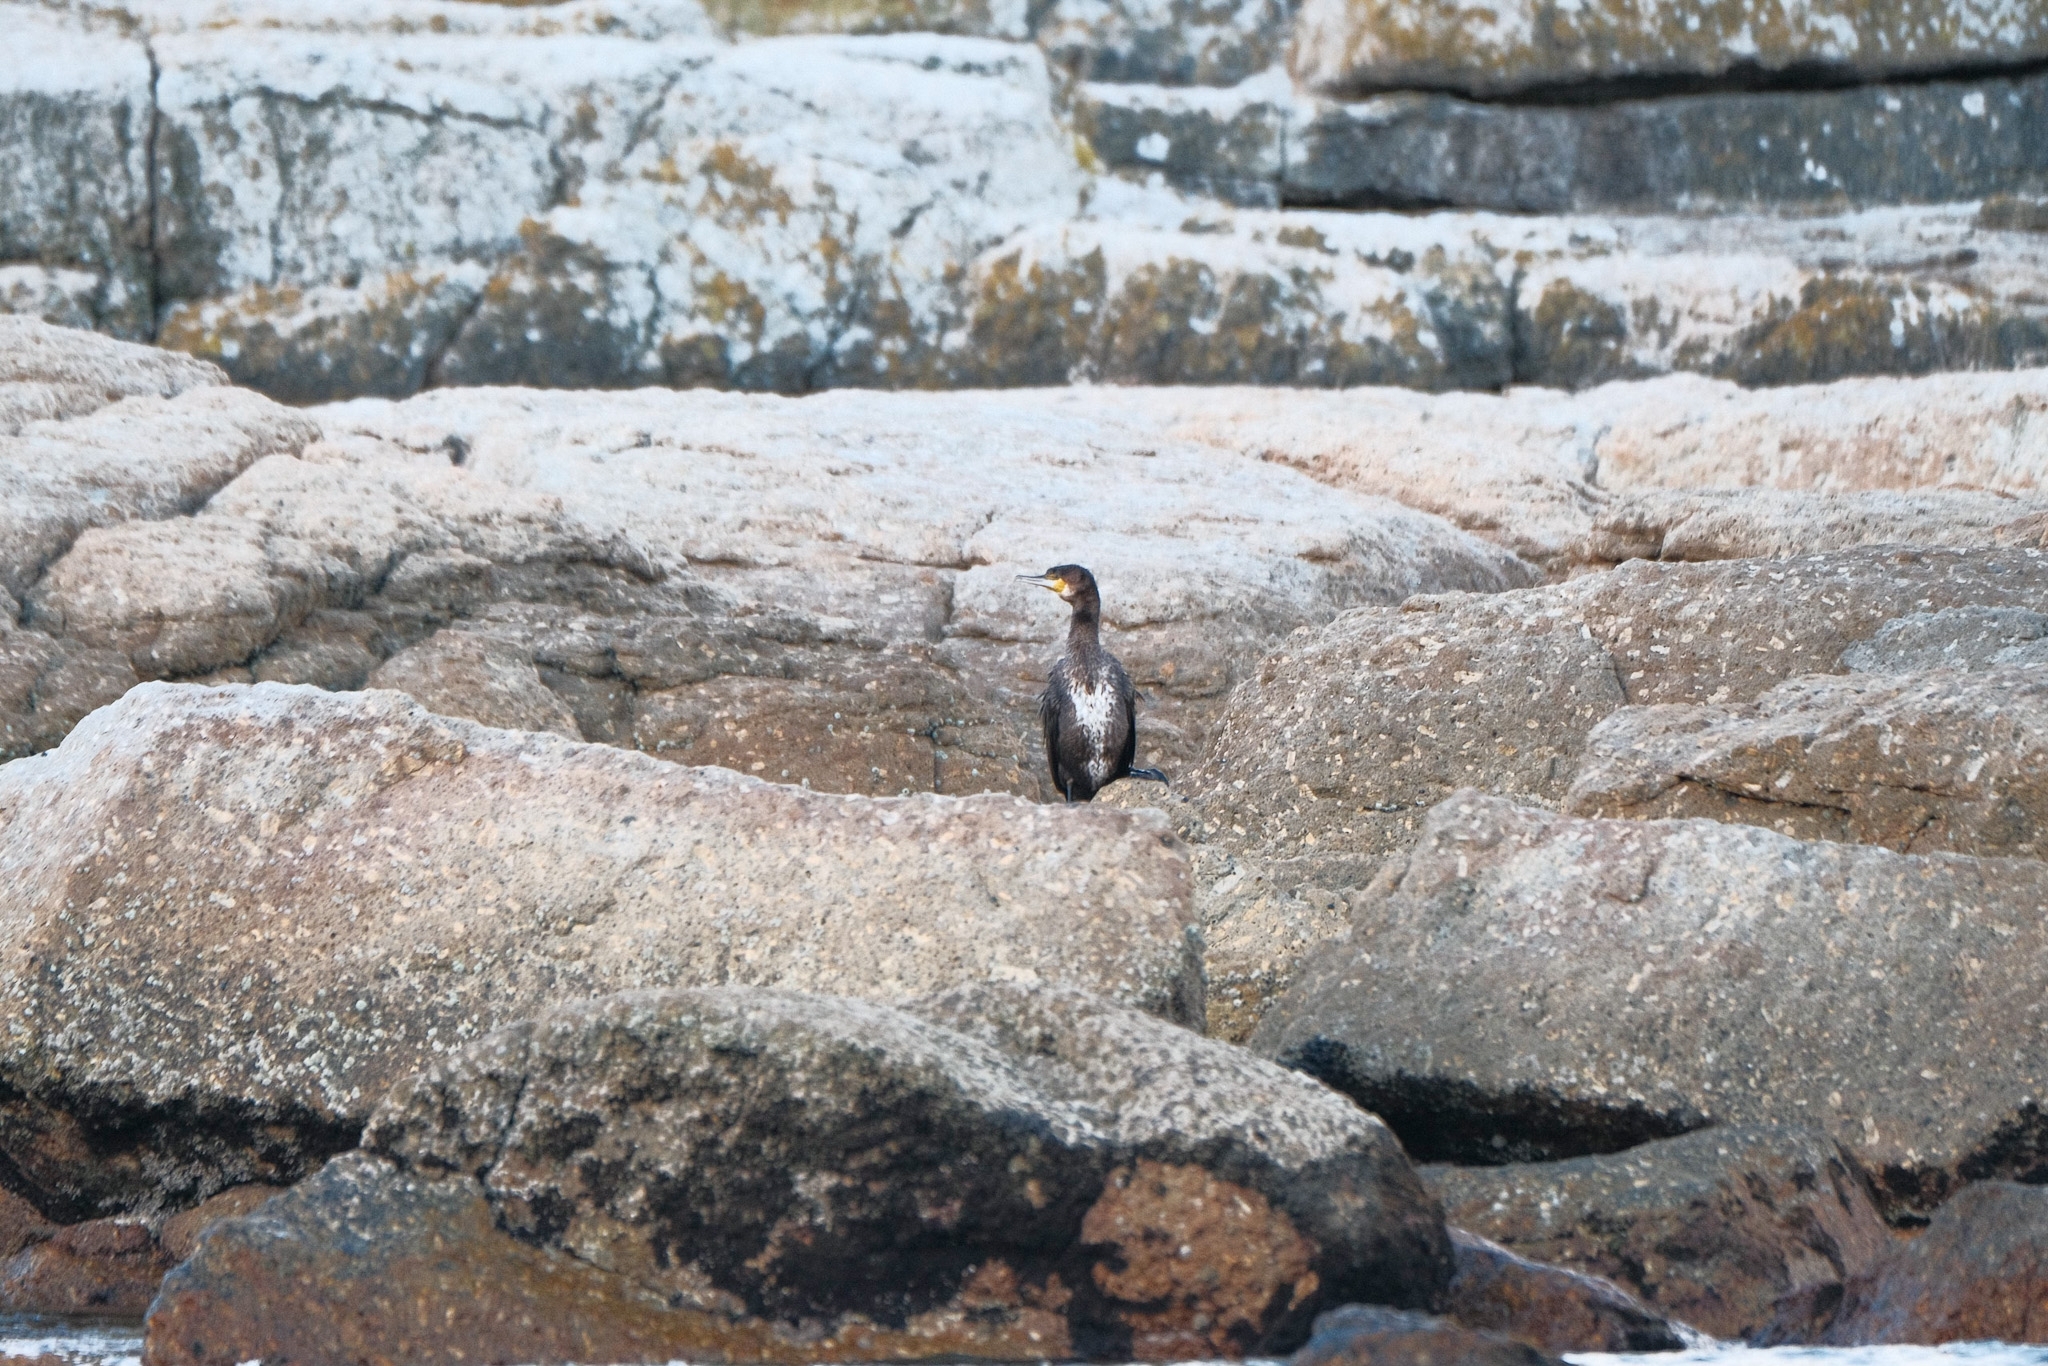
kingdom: Animalia
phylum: Chordata
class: Aves
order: Suliformes
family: Phalacrocoracidae
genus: Phalacrocorax
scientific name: Phalacrocorax carbo
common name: Great cormorant
